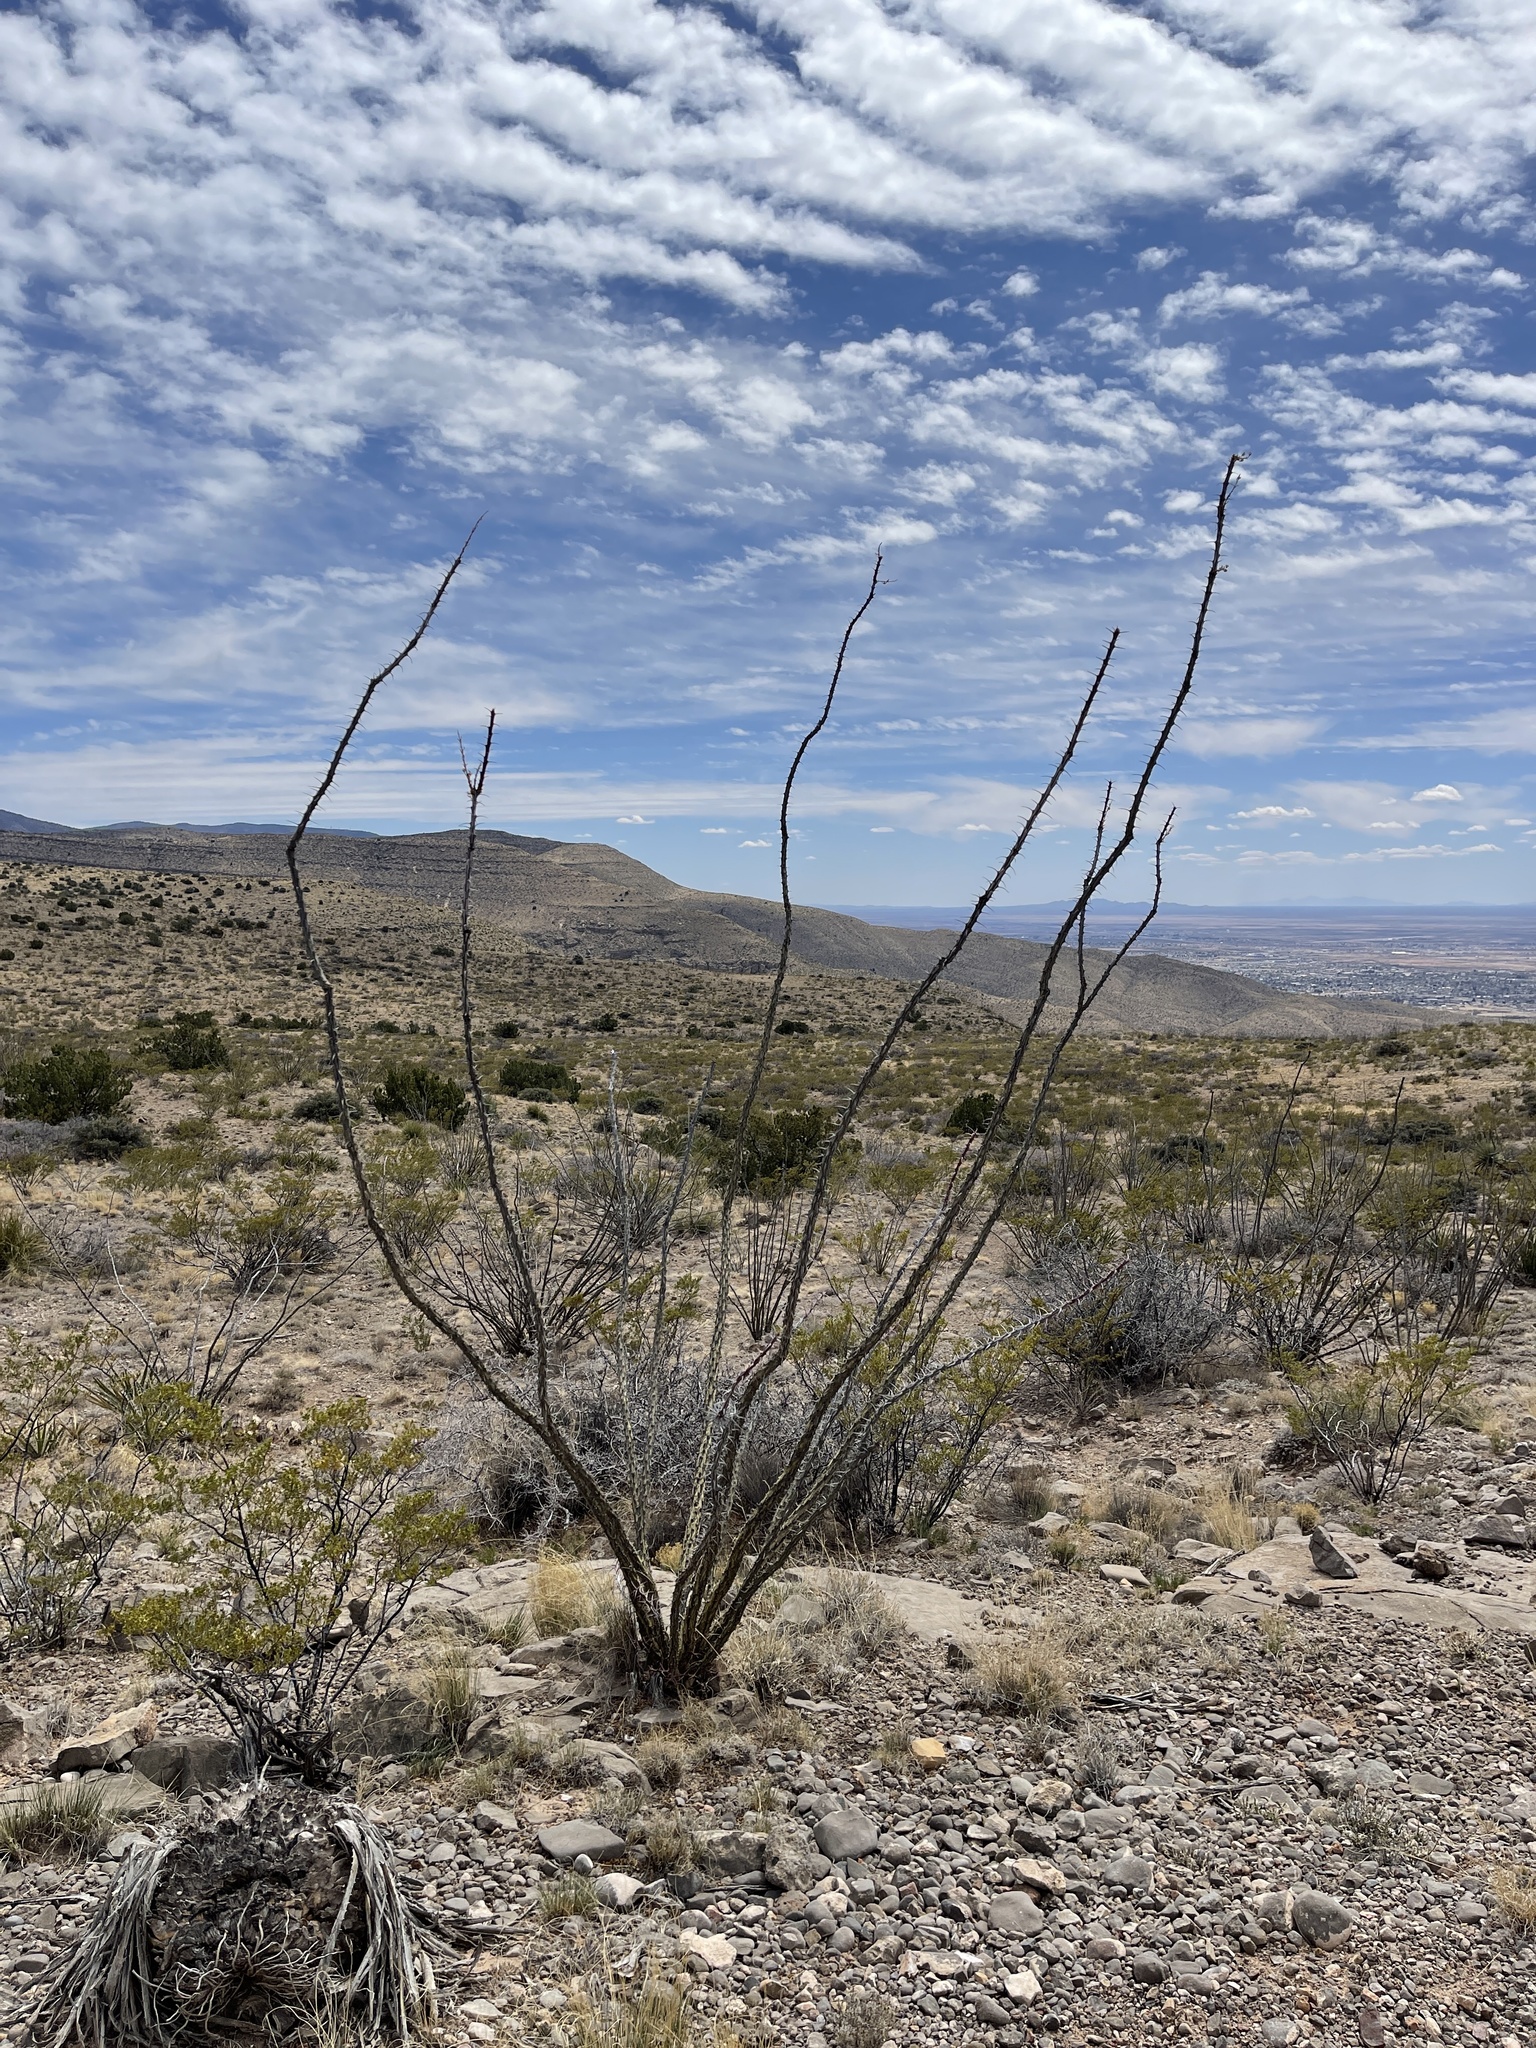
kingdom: Plantae
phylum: Tracheophyta
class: Magnoliopsida
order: Ericales
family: Fouquieriaceae
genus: Fouquieria
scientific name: Fouquieria splendens
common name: Vine-cactus
